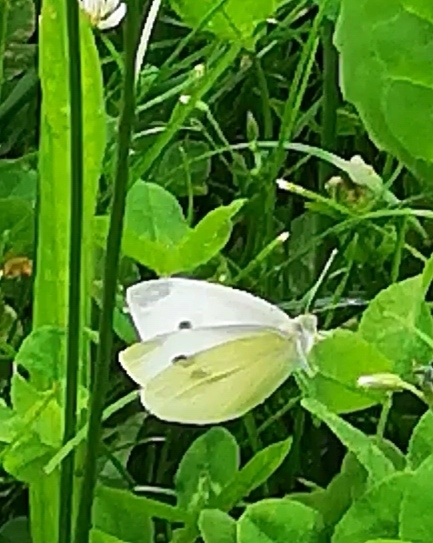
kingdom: Animalia
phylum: Arthropoda
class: Insecta
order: Lepidoptera
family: Pieridae
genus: Pieris
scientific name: Pieris rapae
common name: Small white
